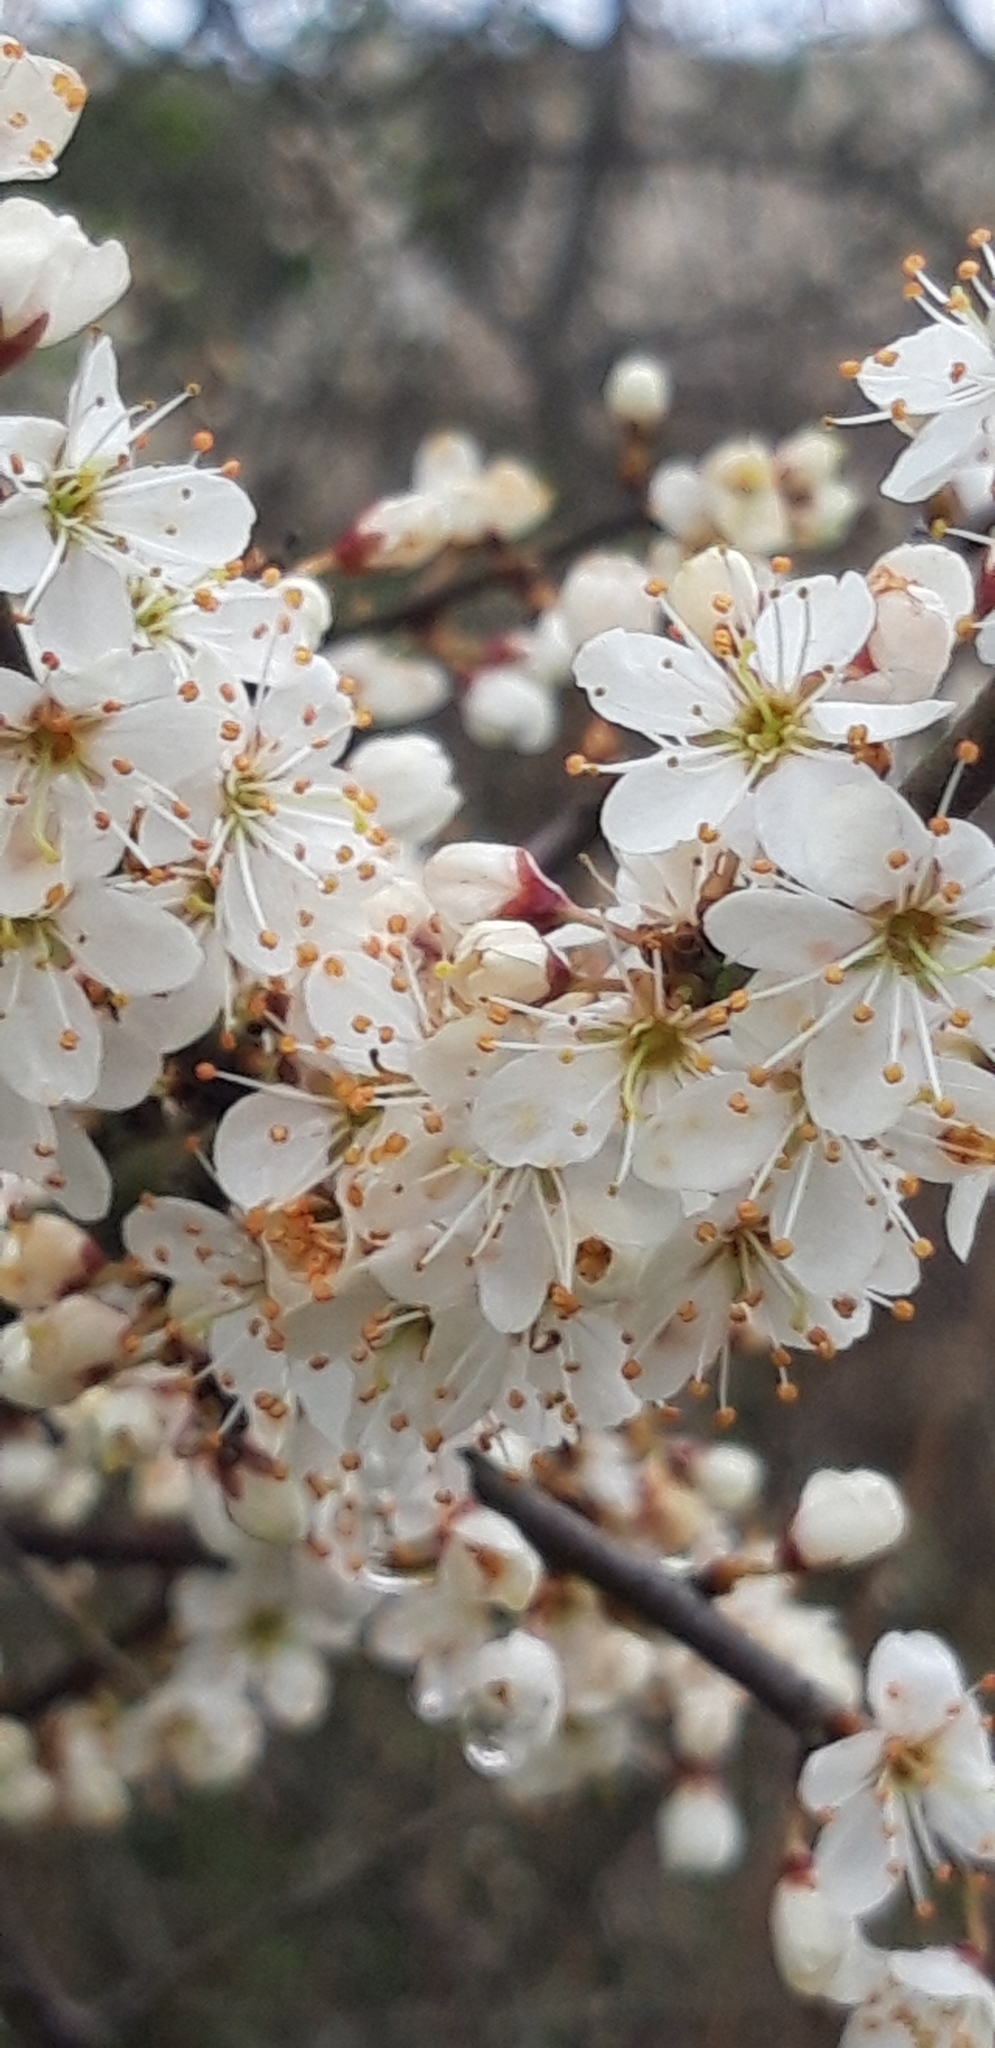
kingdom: Plantae
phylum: Tracheophyta
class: Magnoliopsida
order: Rosales
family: Rosaceae
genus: Prunus
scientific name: Prunus spinosa
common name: Blackthorn
